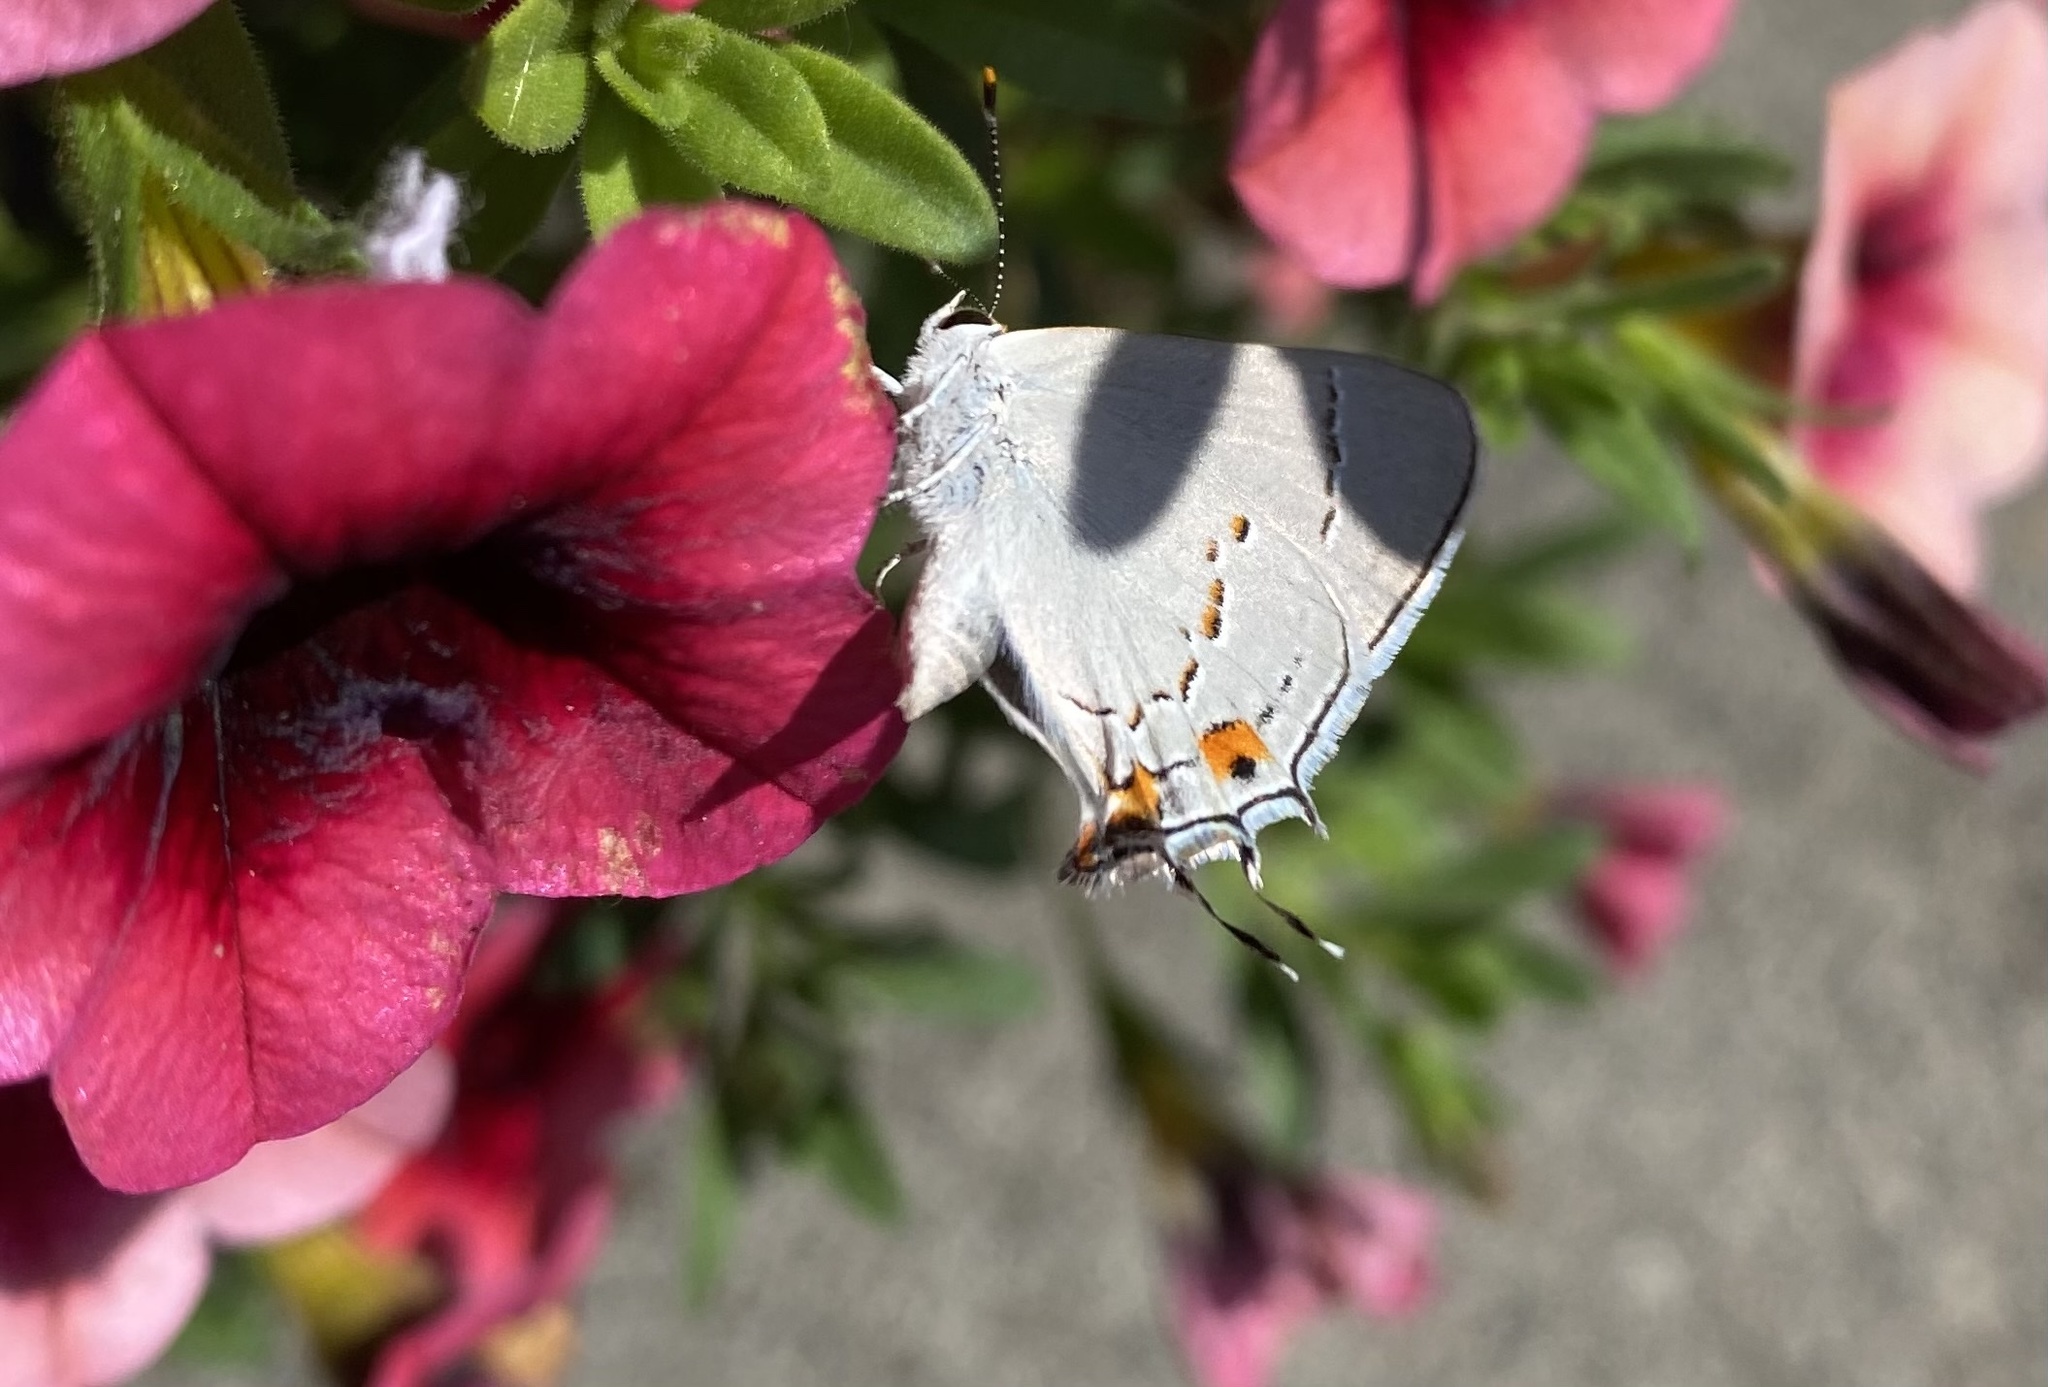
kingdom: Animalia
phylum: Arthropoda
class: Insecta
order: Lepidoptera
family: Lycaenidae
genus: Strymon
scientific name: Strymon melinus
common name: Gray hairstreak
